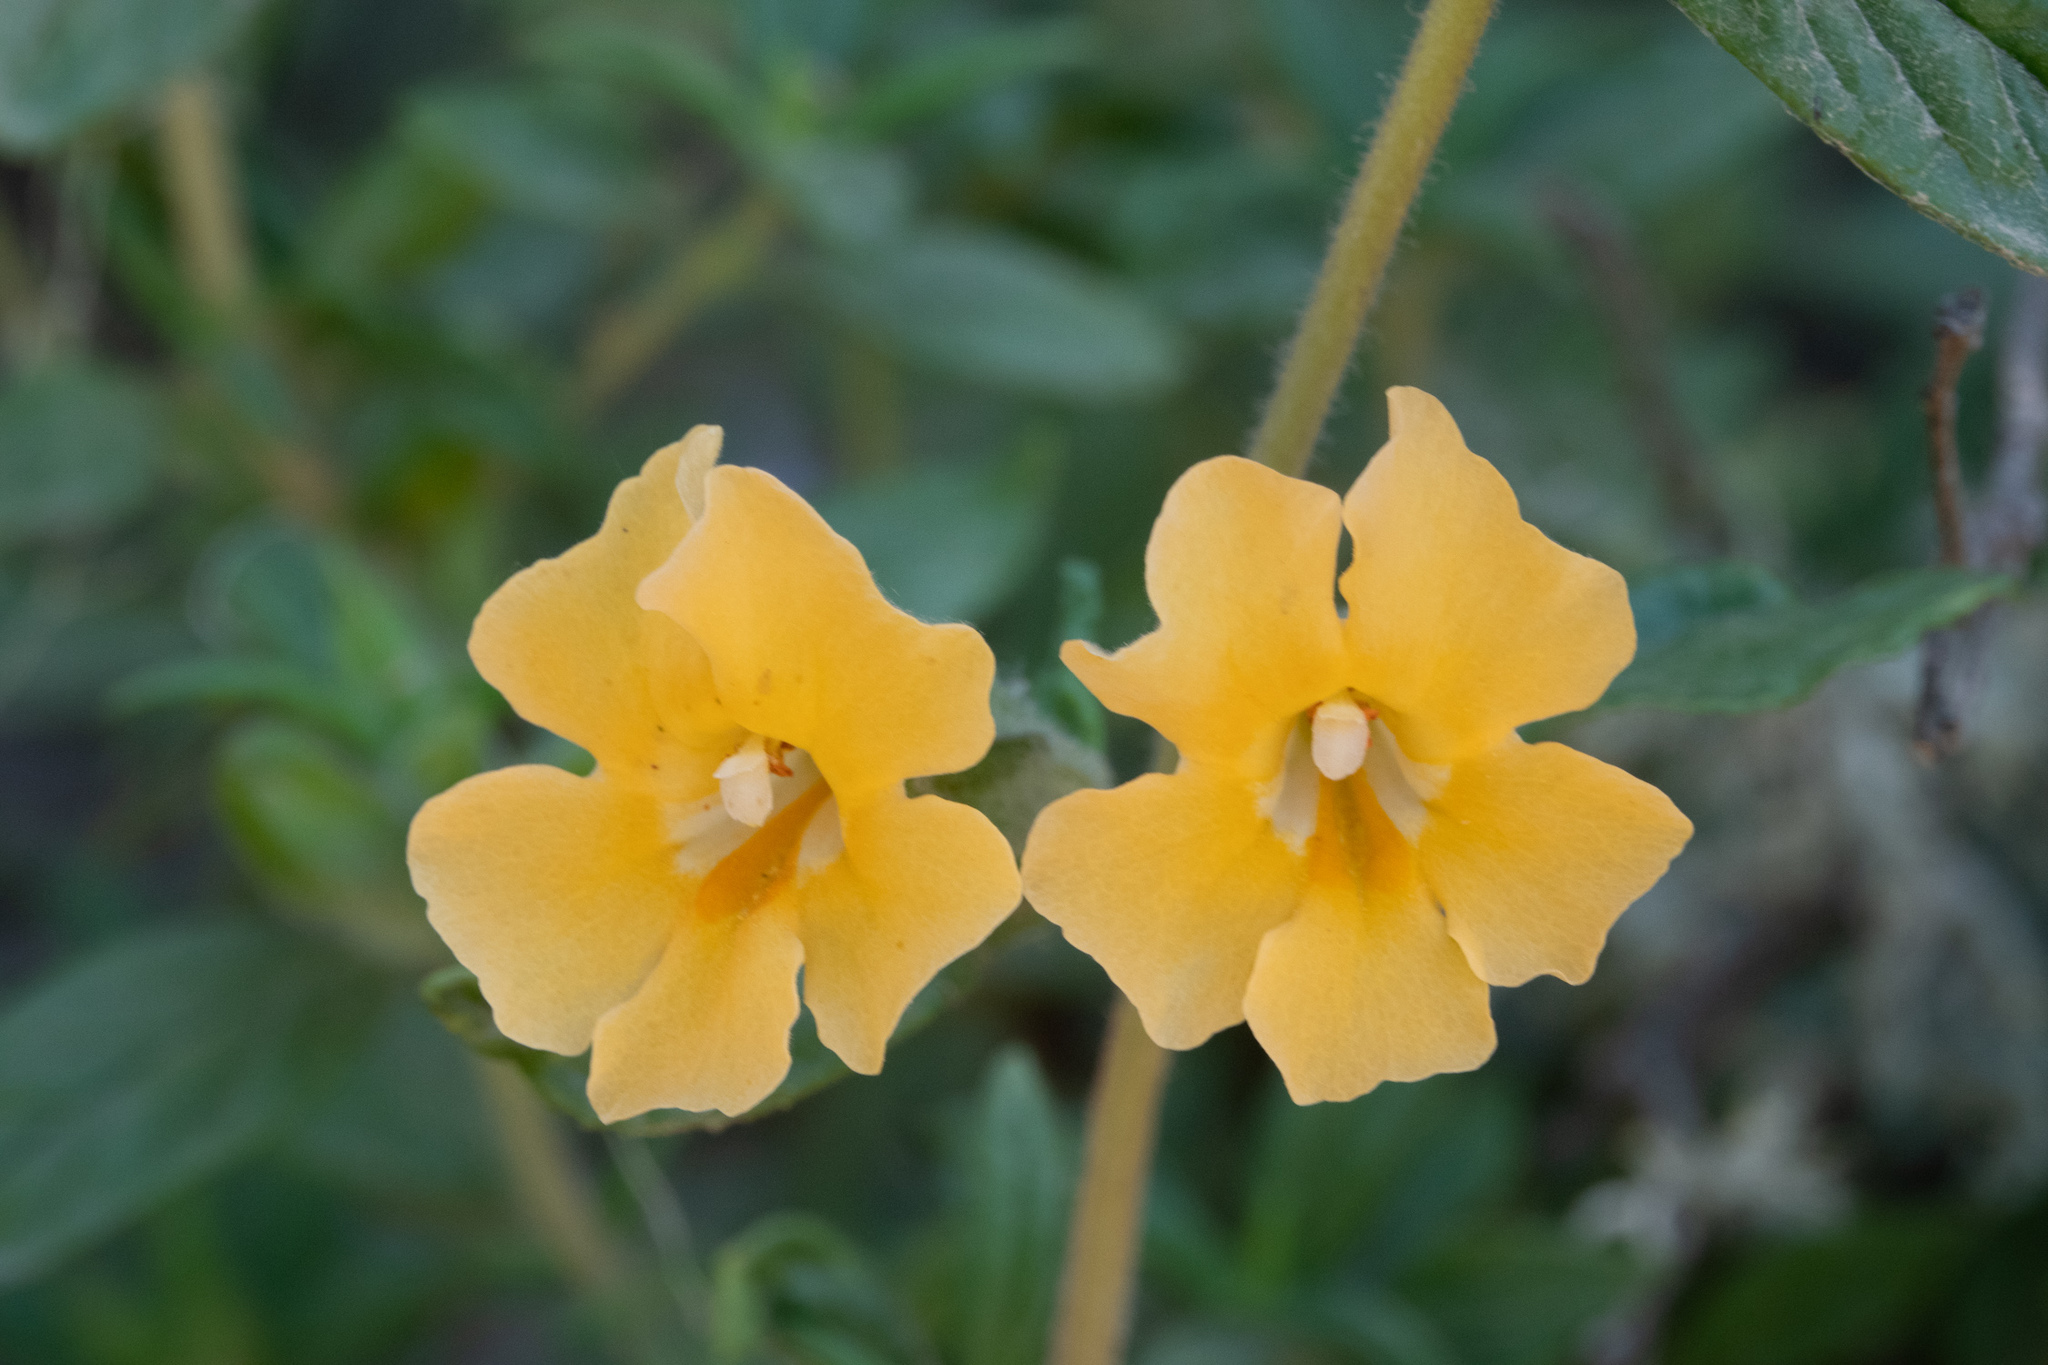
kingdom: Plantae
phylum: Tracheophyta
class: Magnoliopsida
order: Lamiales
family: Phrymaceae
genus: Diplacus
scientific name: Diplacus aurantiacus
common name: Bush monkey-flower
